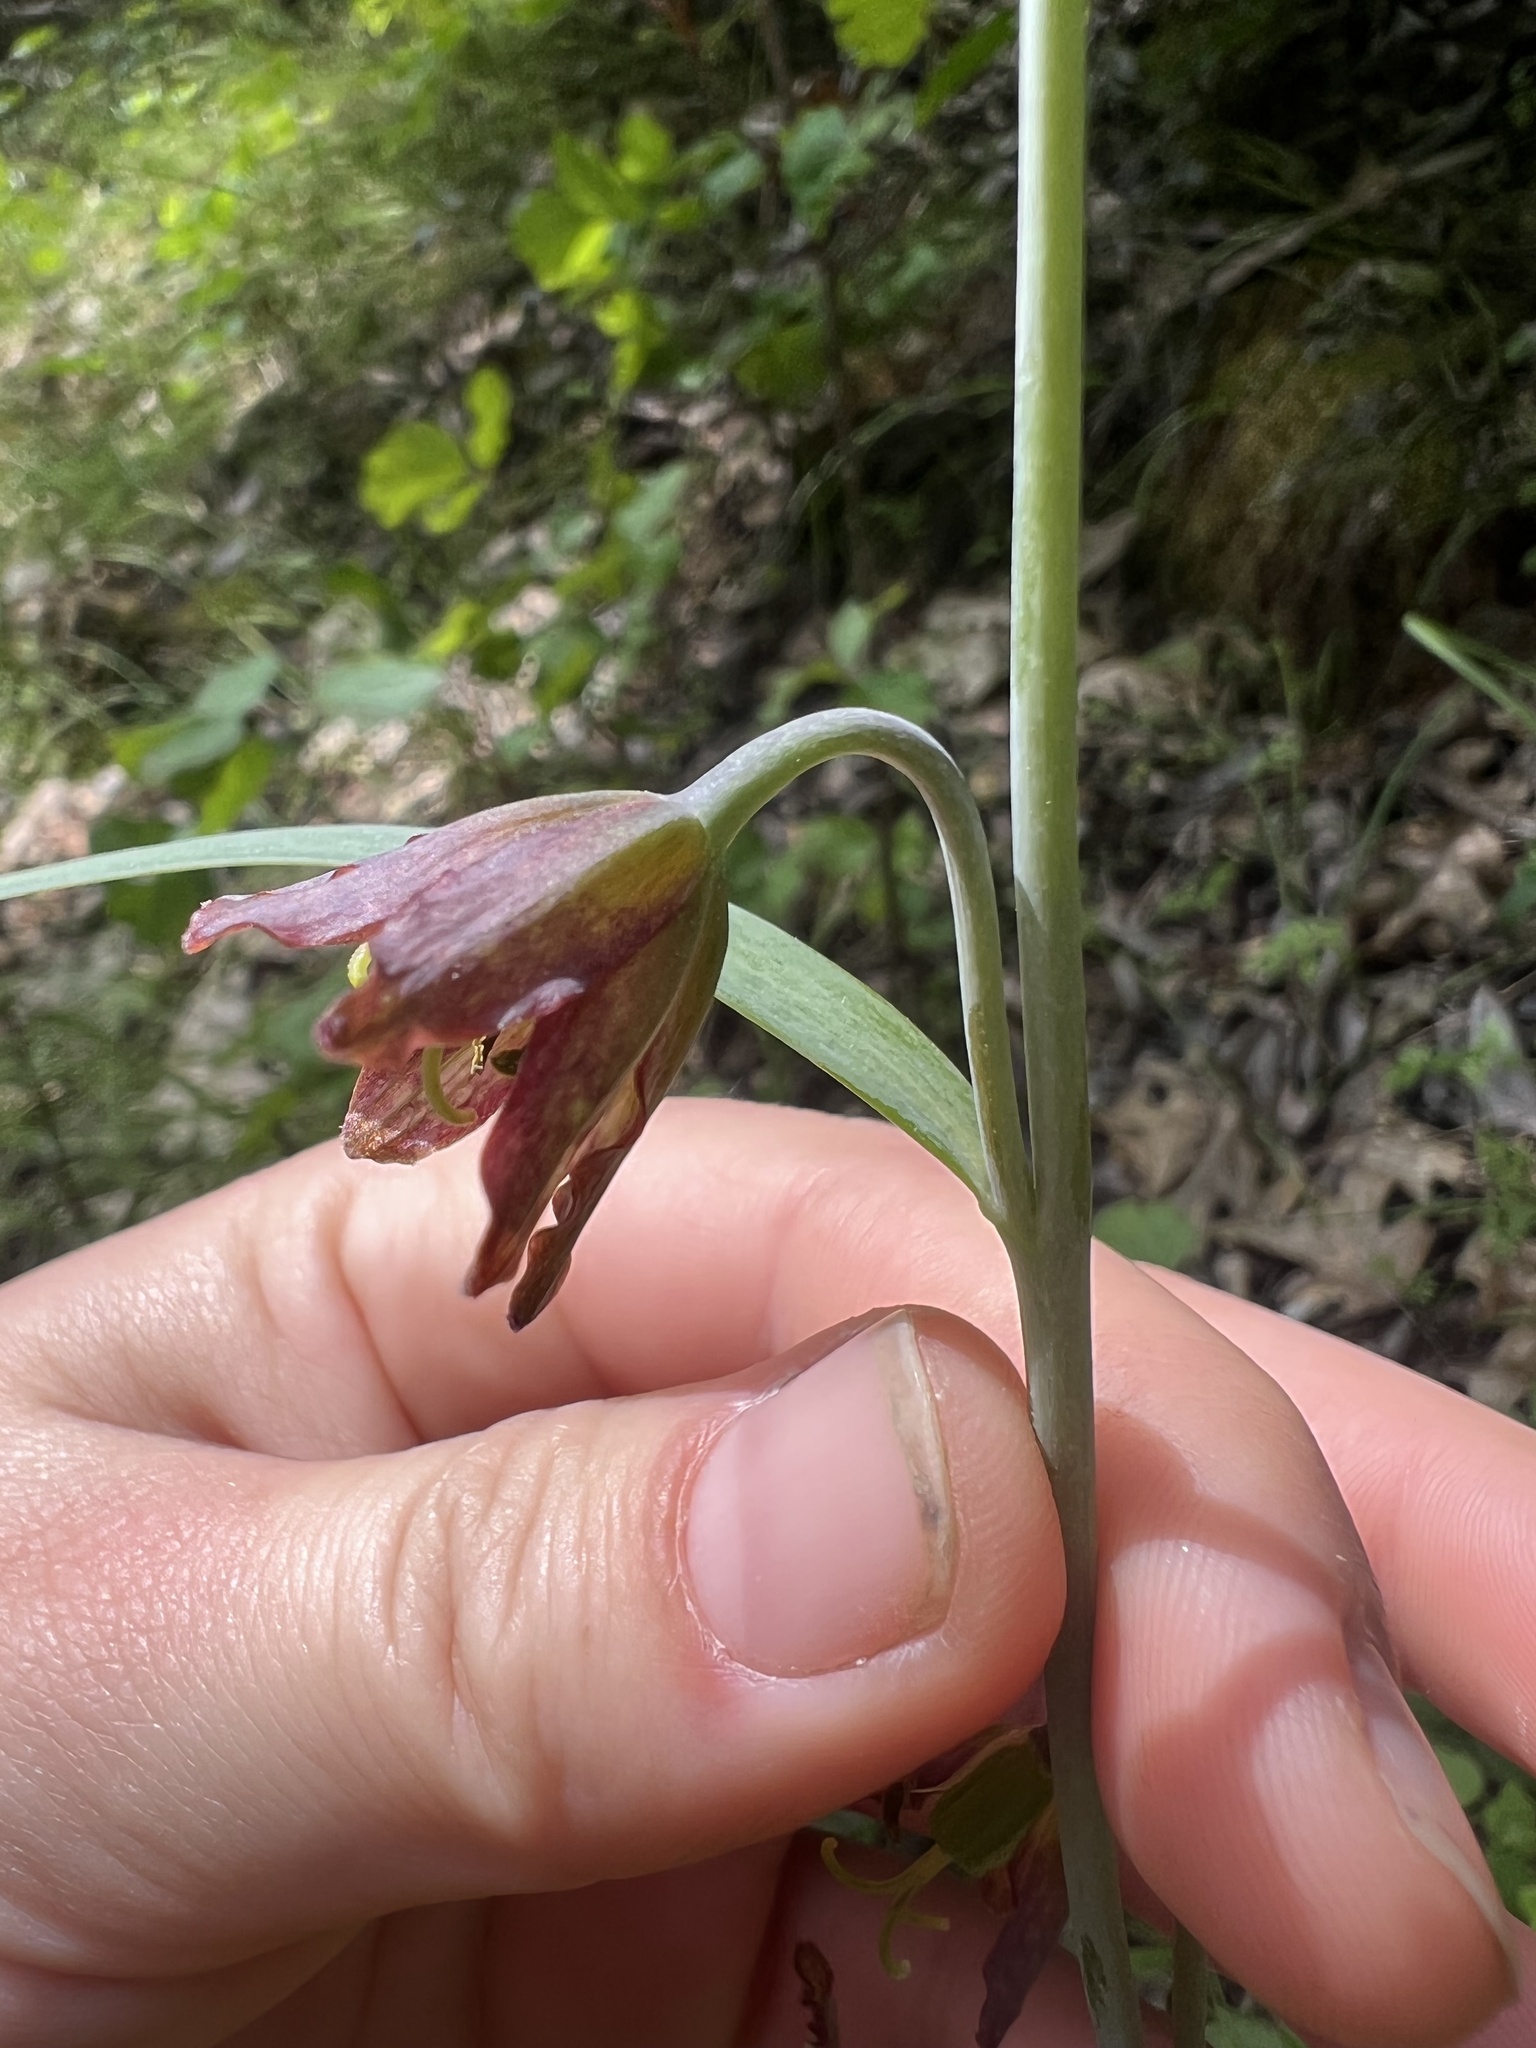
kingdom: Plantae
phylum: Tracheophyta
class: Liliopsida
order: Liliales
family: Liliaceae
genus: Fritillaria
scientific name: Fritillaria micrantha
